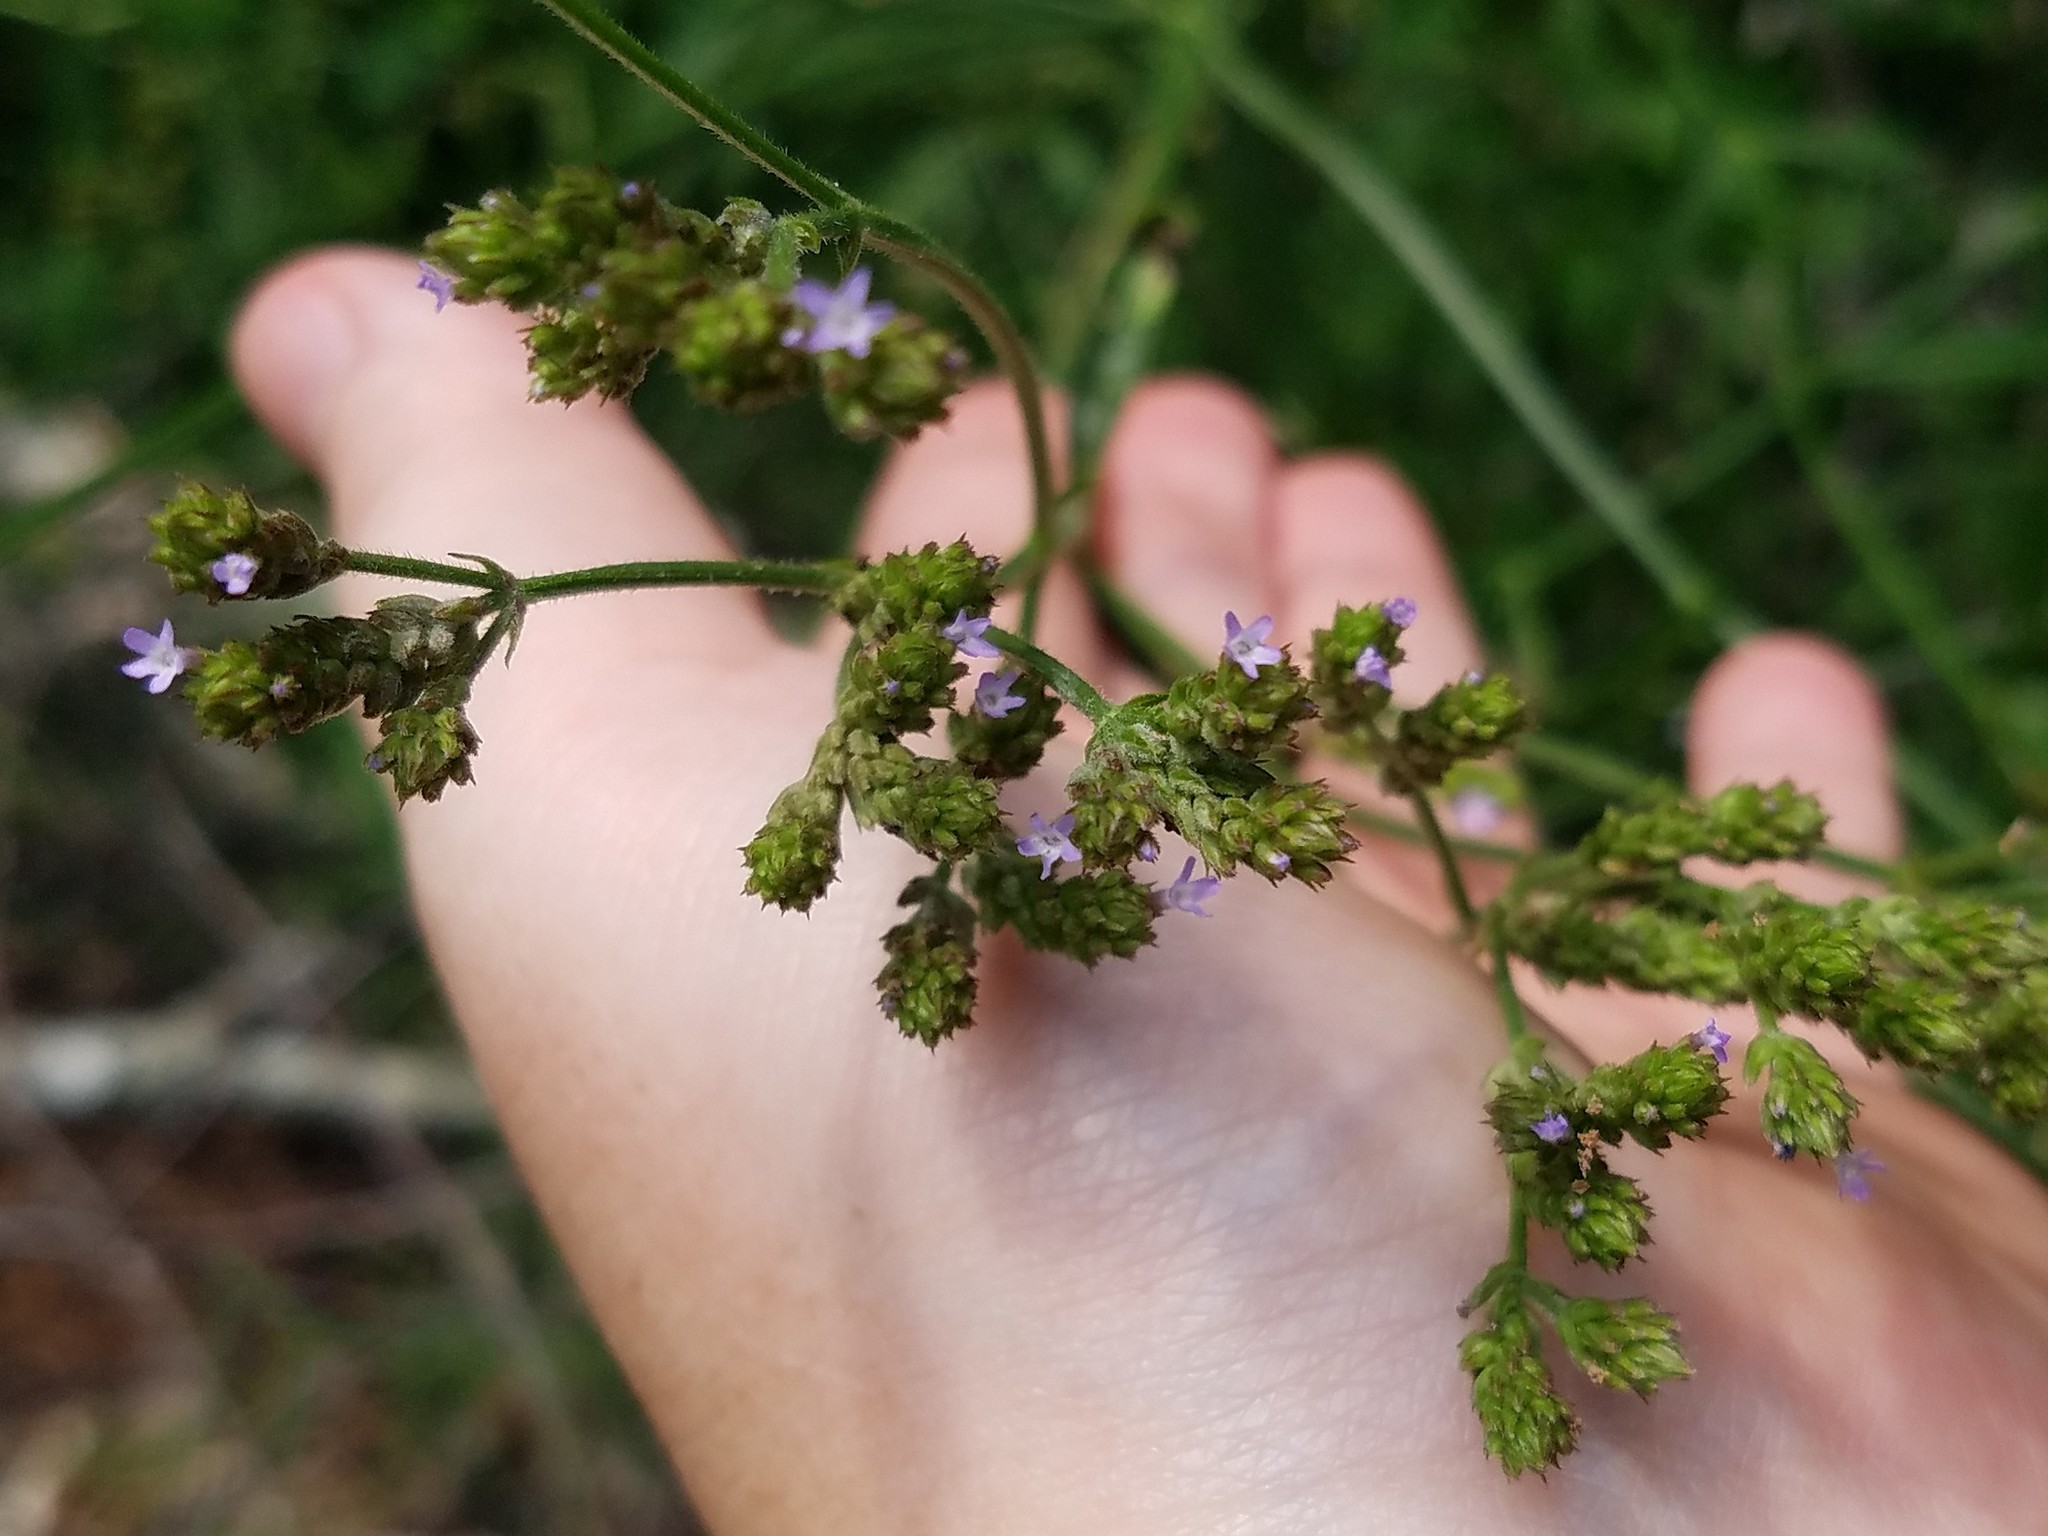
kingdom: Plantae
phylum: Tracheophyta
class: Magnoliopsida
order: Lamiales
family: Verbenaceae
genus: Verbena
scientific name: Verbena brasiliensis
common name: Brazilian vervain
